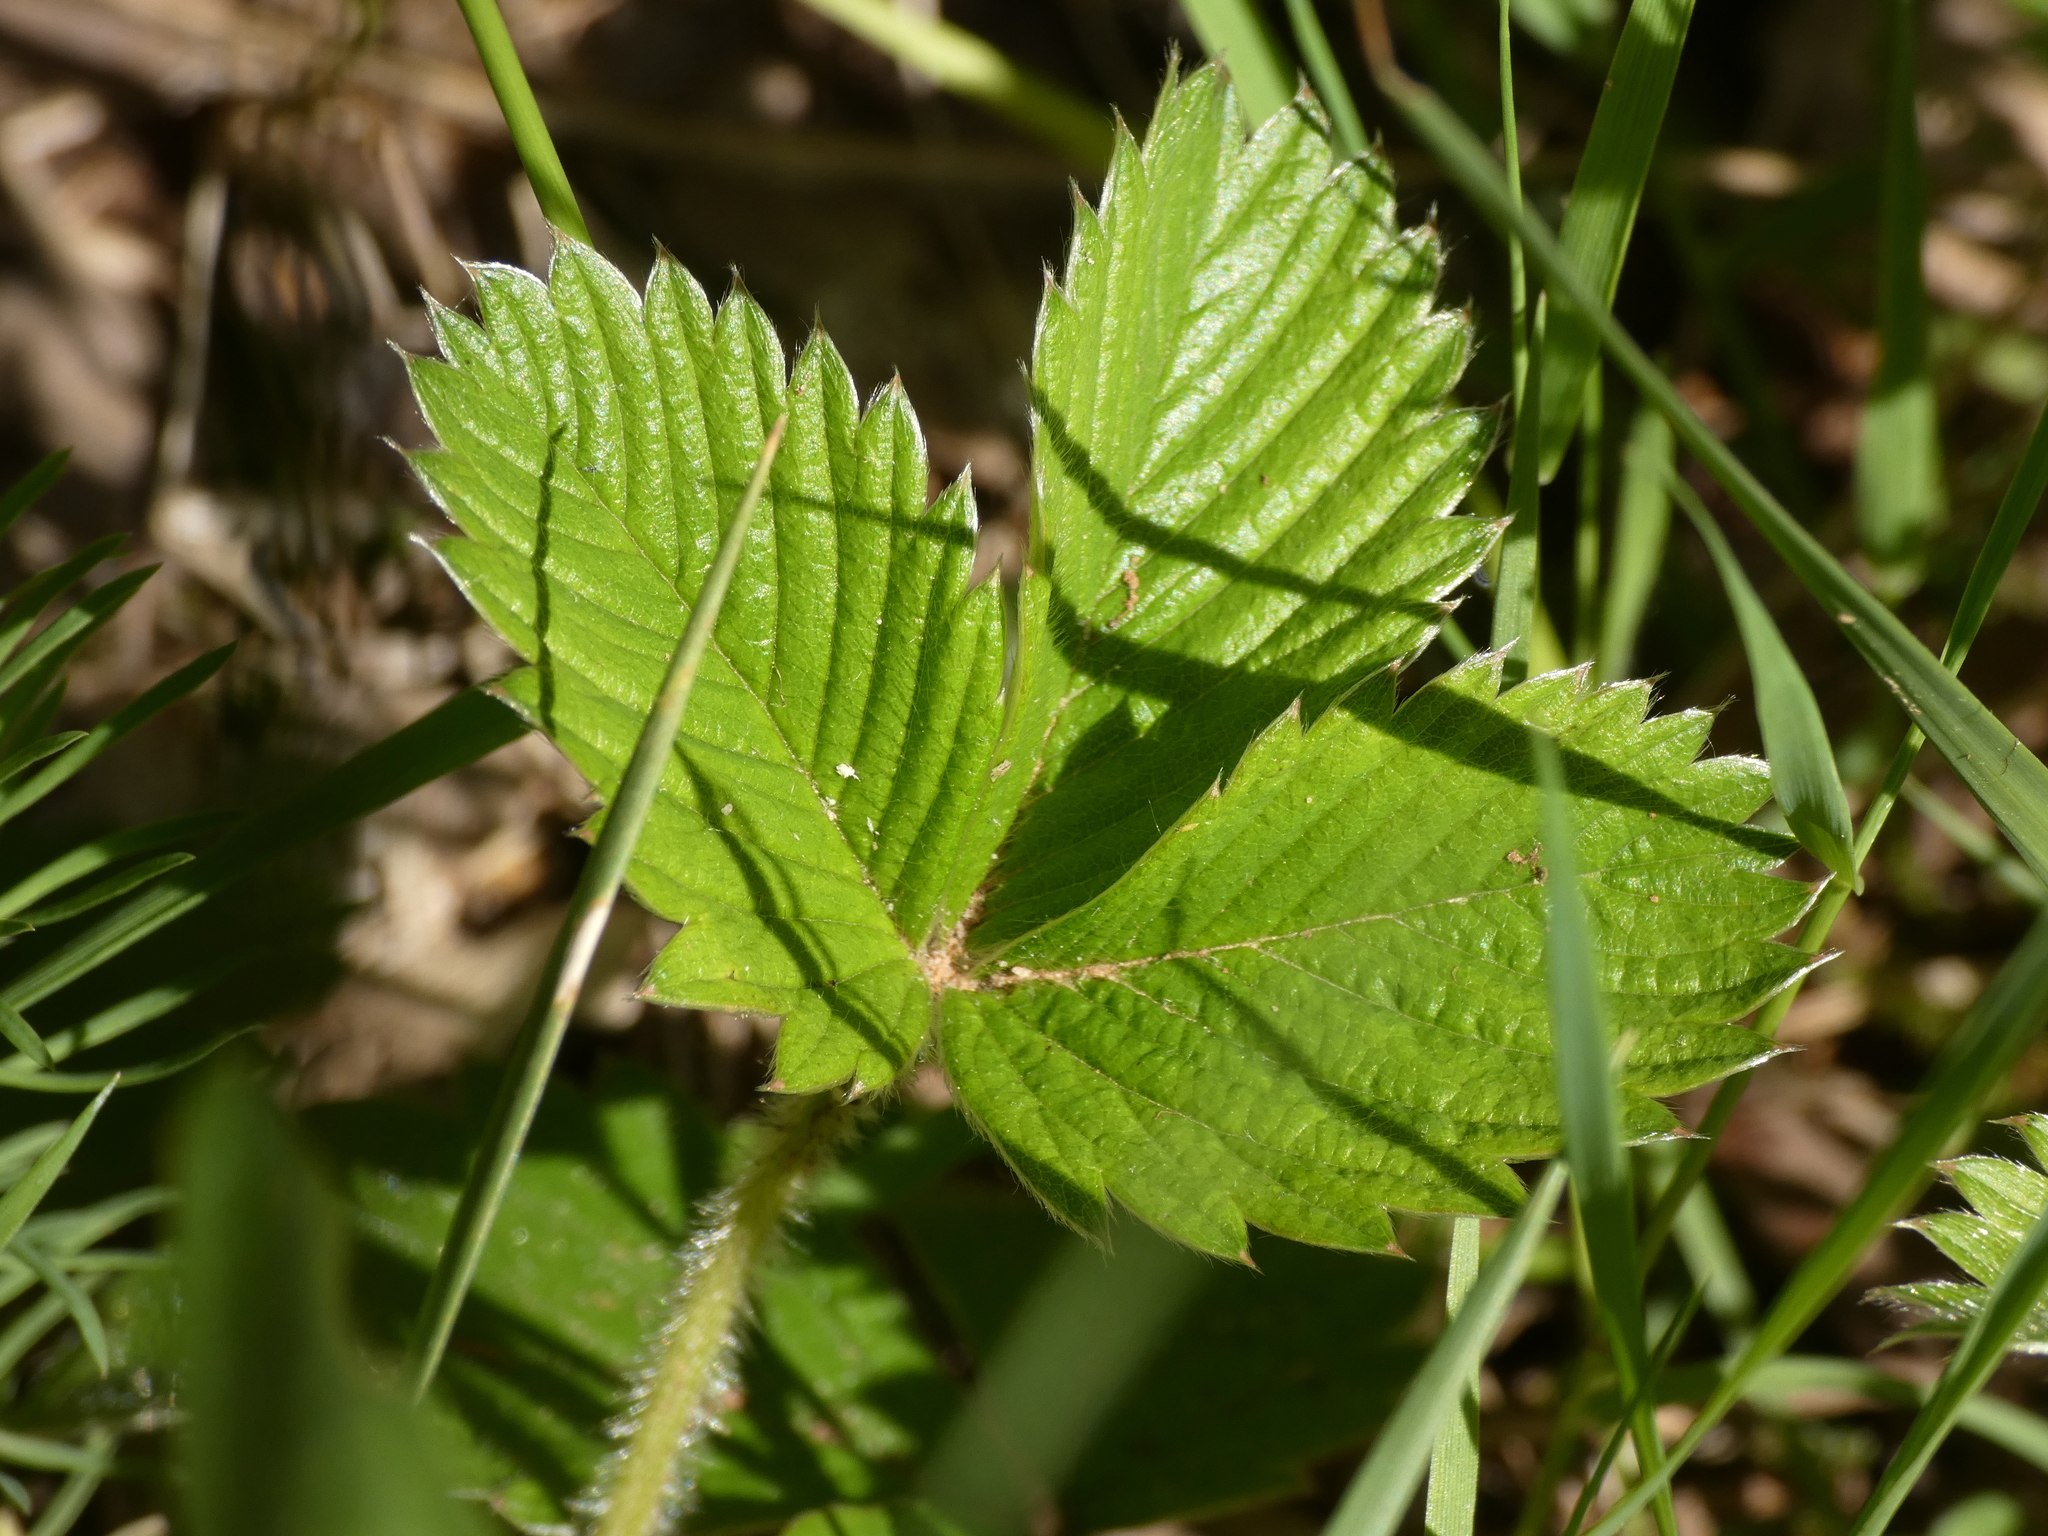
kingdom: Plantae
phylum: Tracheophyta
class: Magnoliopsida
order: Rosales
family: Rosaceae
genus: Fragaria
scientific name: Fragaria vesca
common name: Wild strawberry
